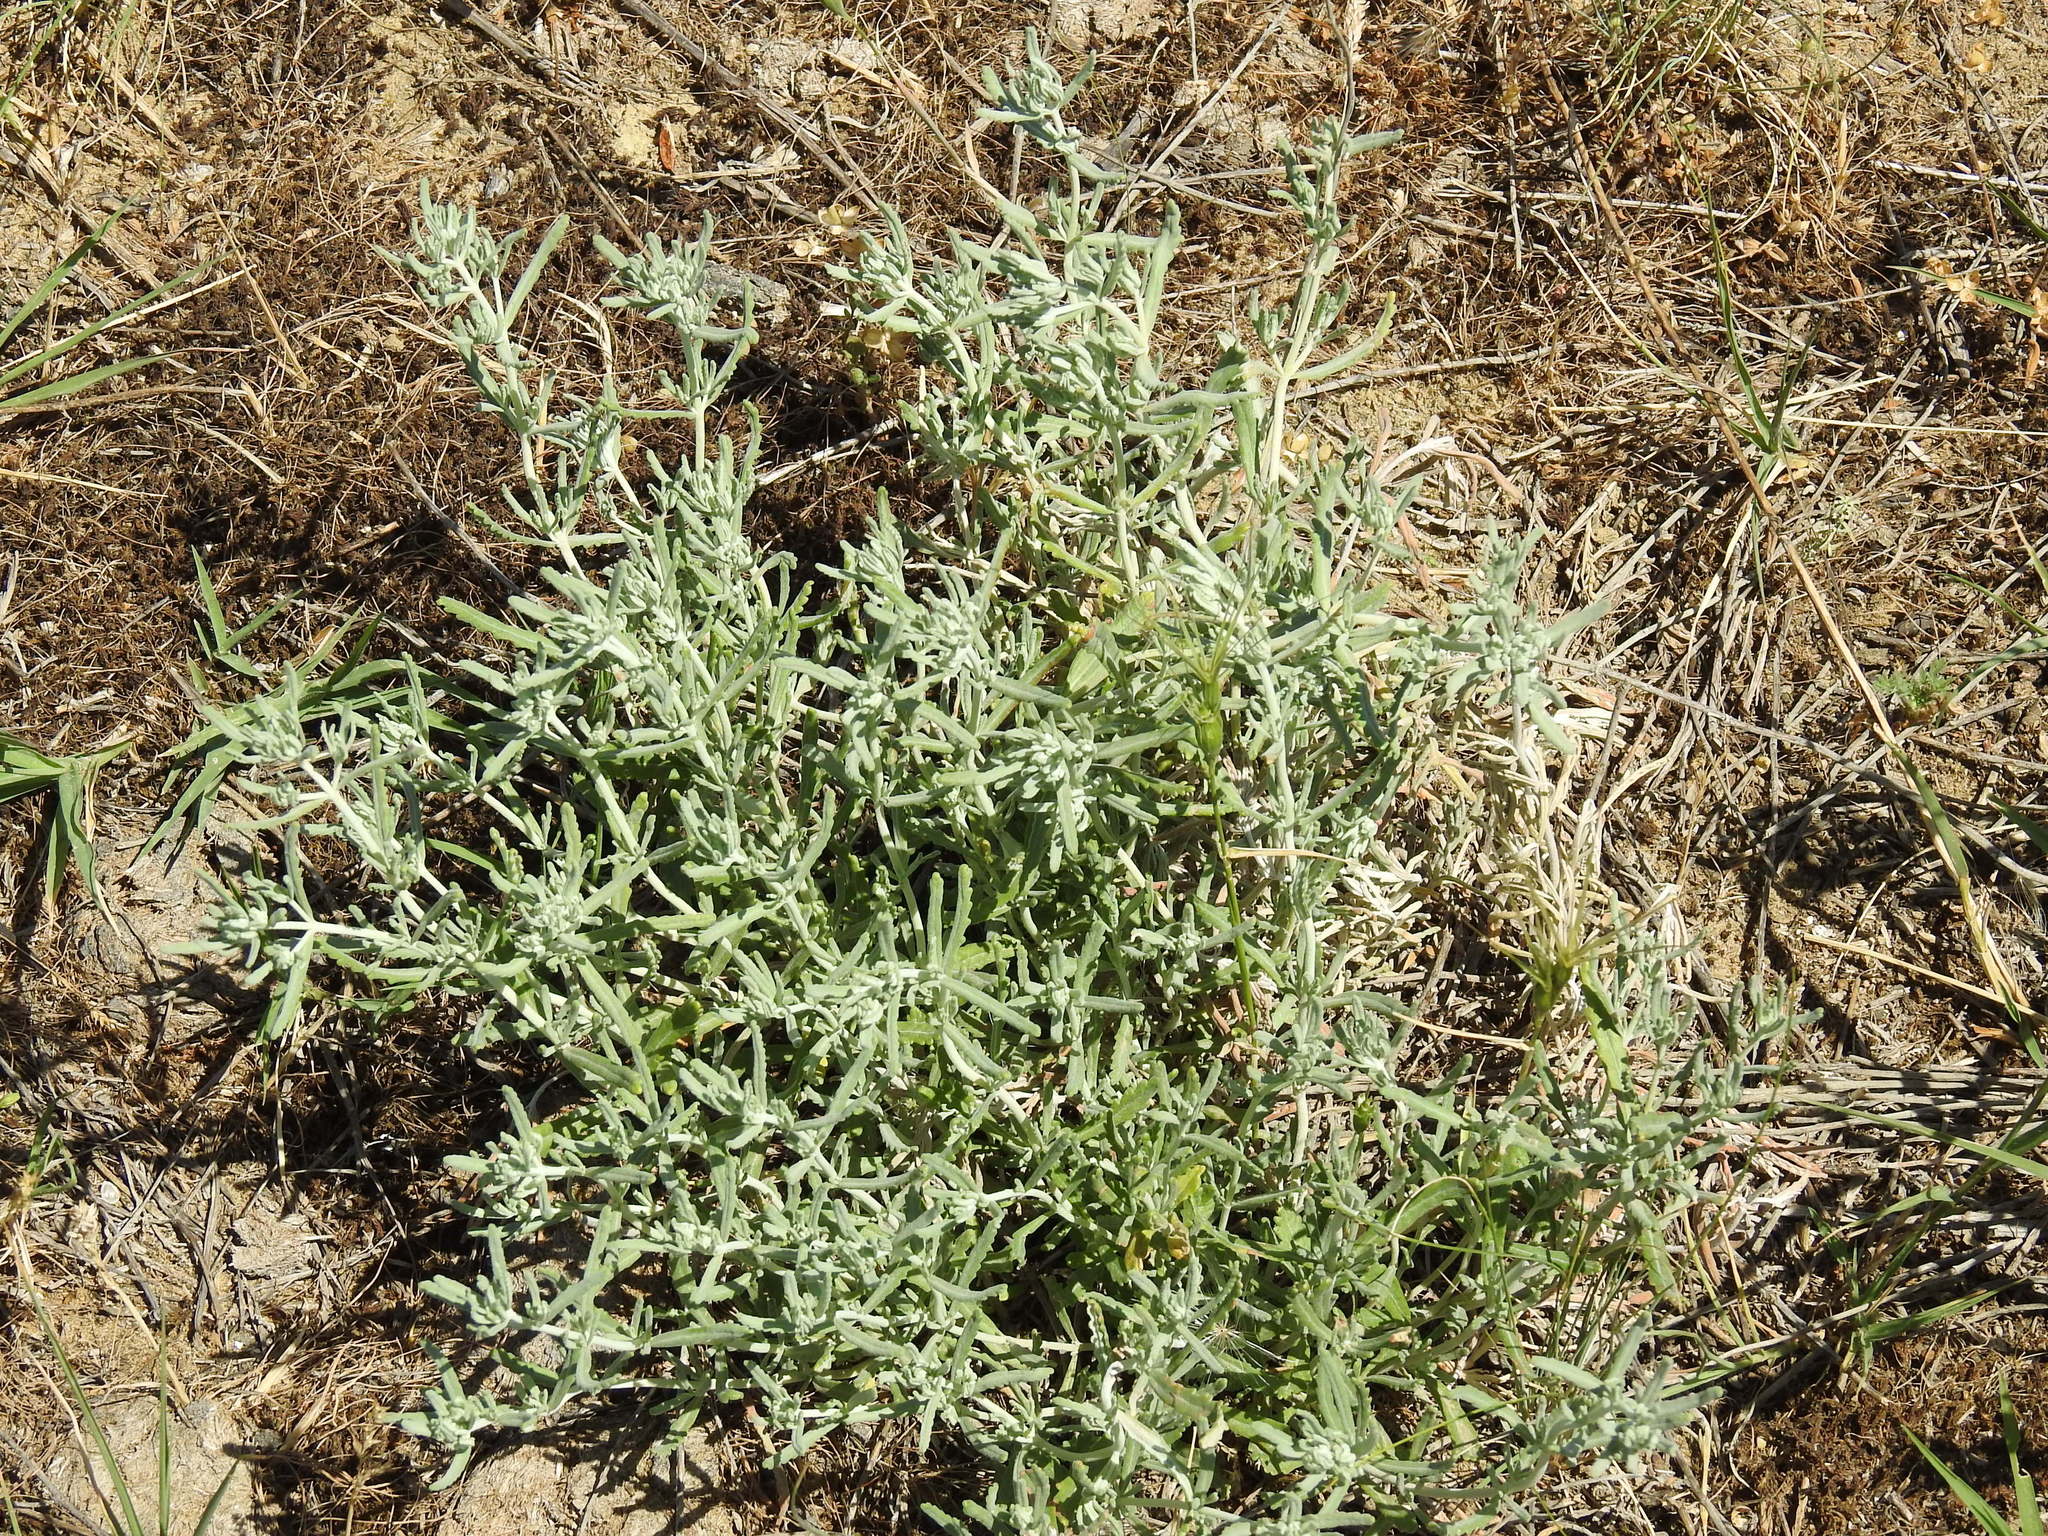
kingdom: Plantae
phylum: Tracheophyta
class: Magnoliopsida
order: Lamiales
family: Lamiaceae
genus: Teucrium
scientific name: Teucrium polium
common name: Poley
